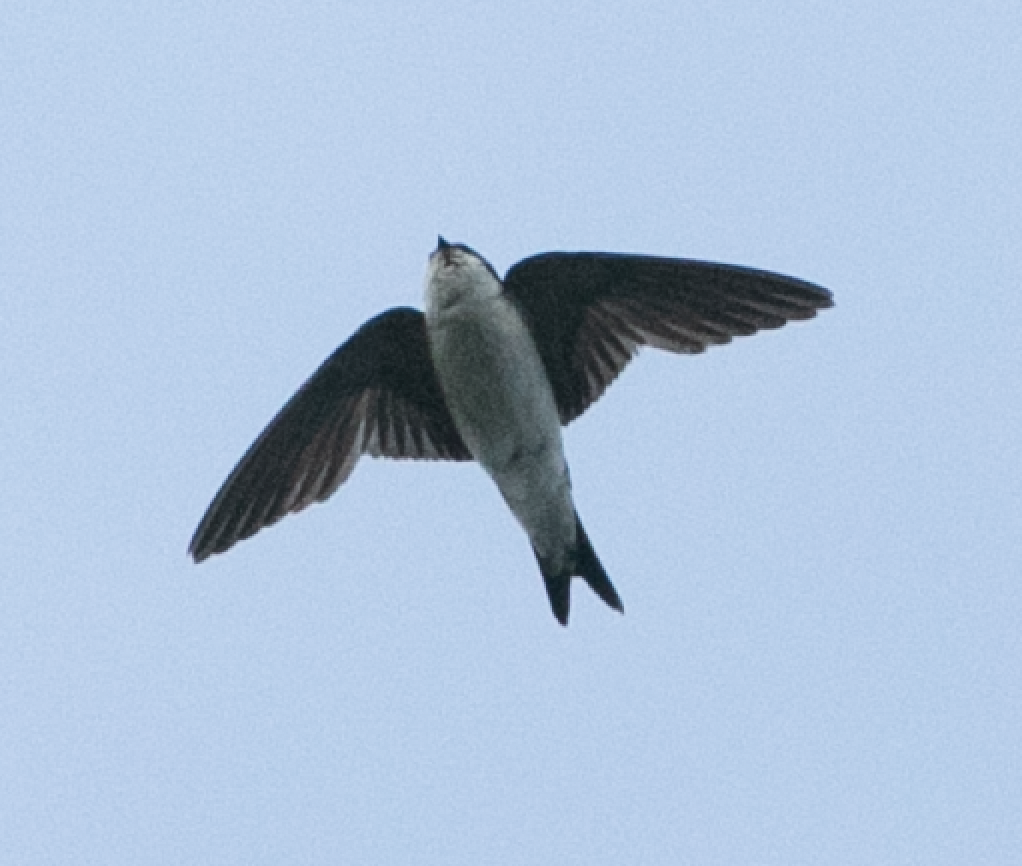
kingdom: Animalia
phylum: Chordata
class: Aves
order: Passeriformes
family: Hirundinidae
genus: Delichon
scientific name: Delichon urbicum
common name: Common house martin
